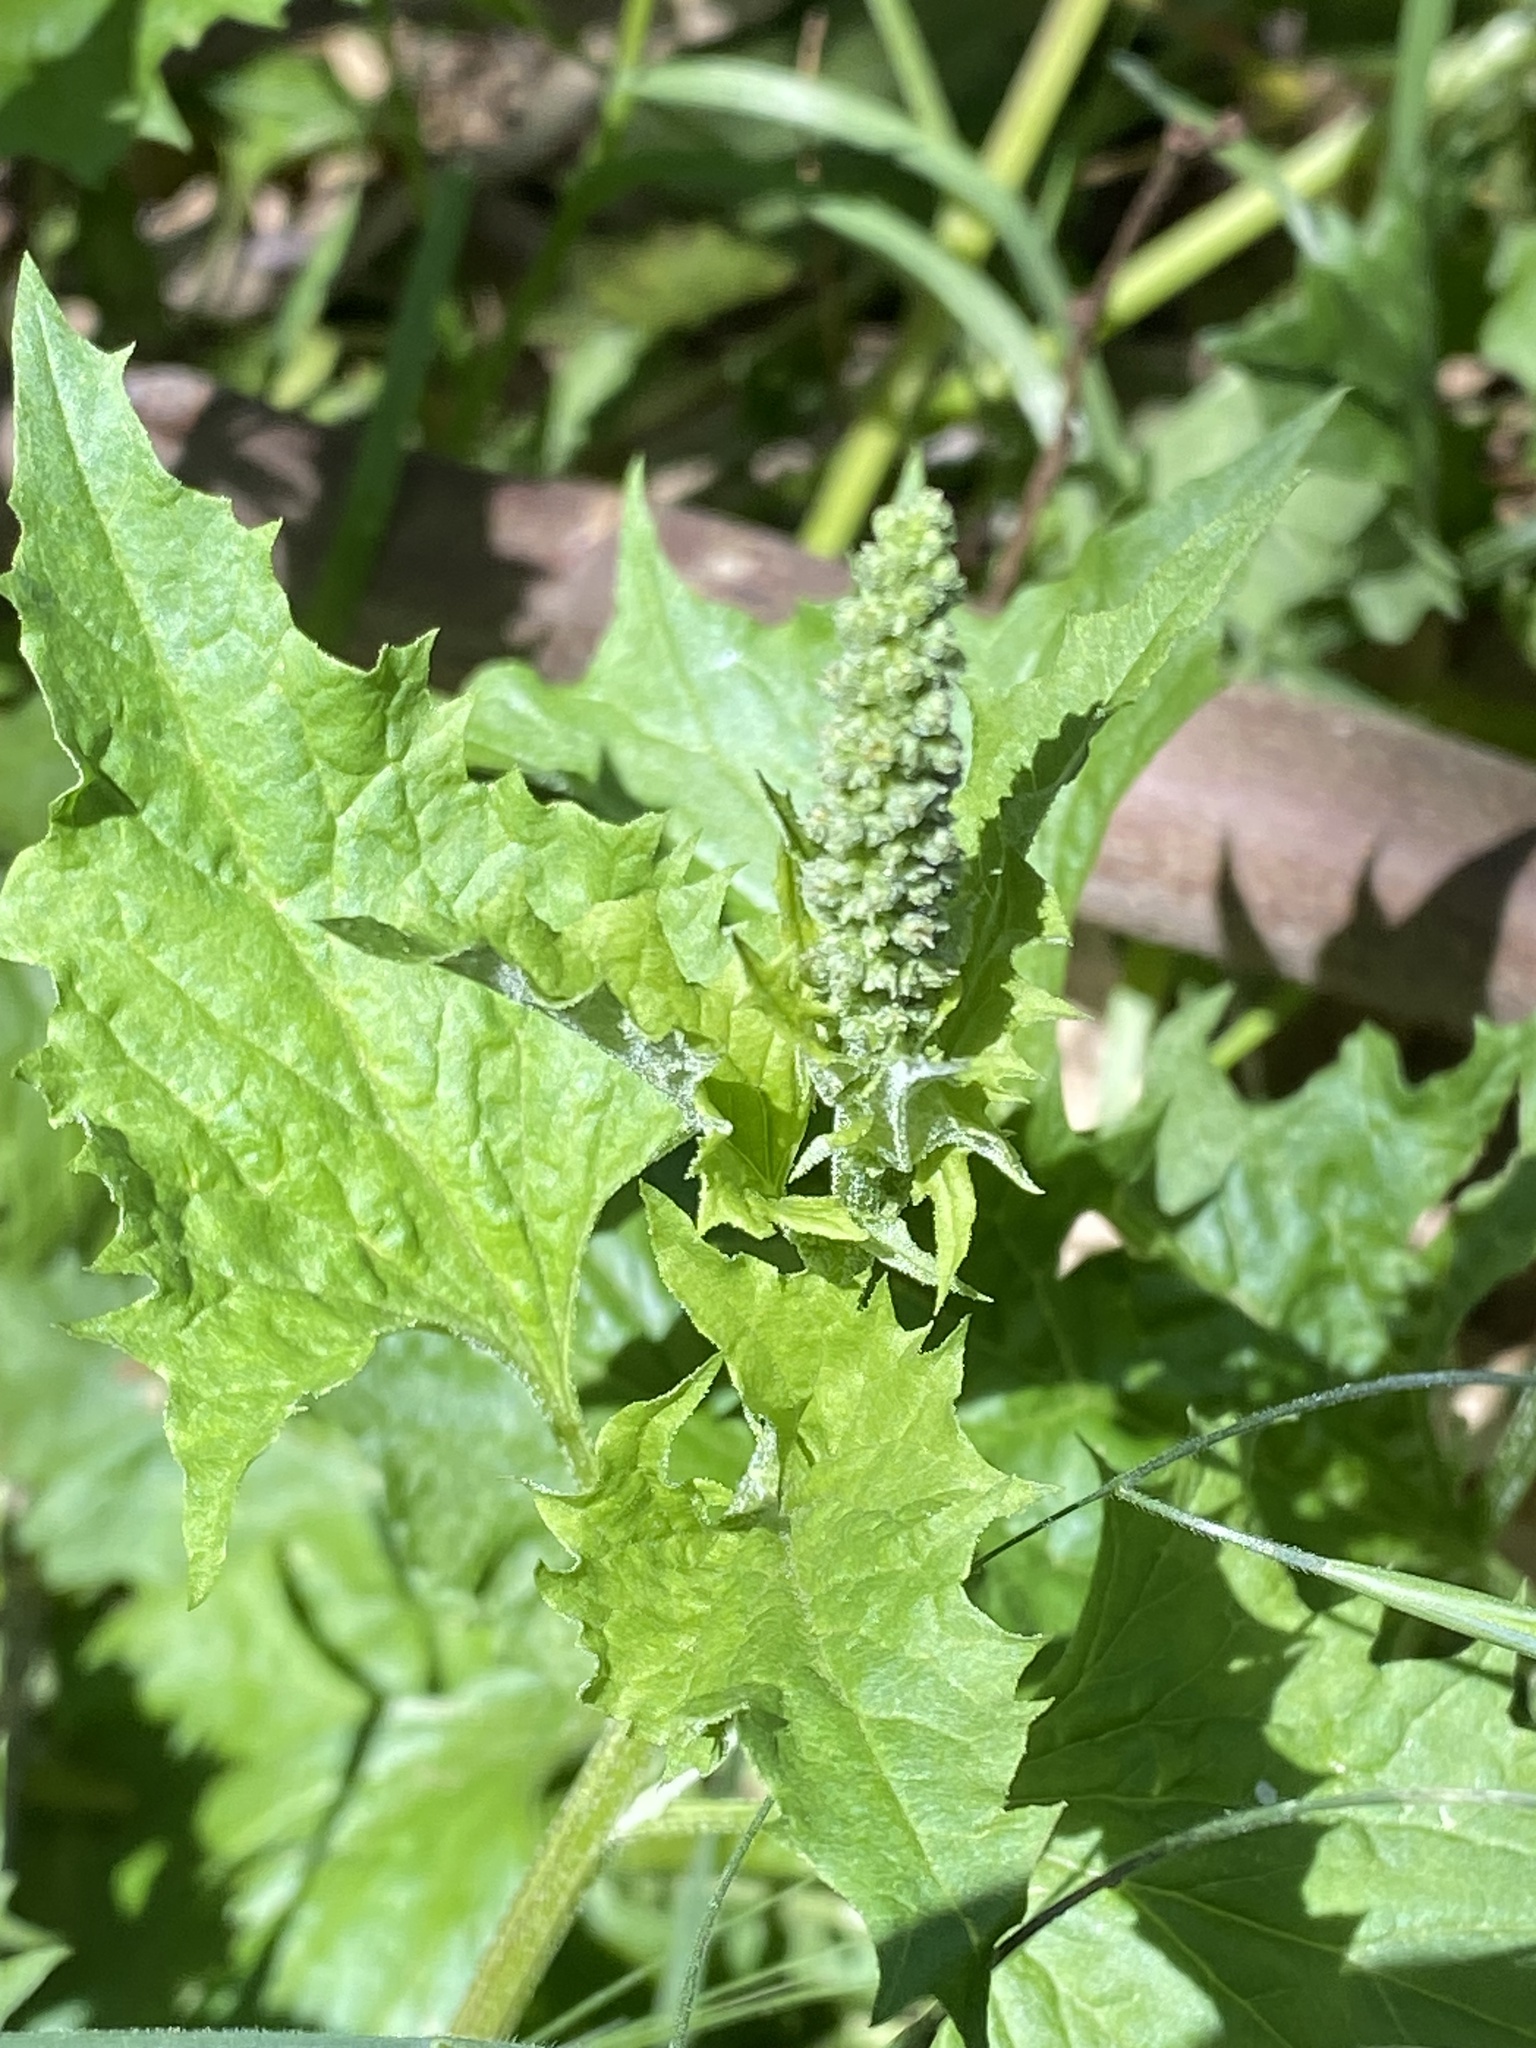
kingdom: Plantae
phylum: Tracheophyta
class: Magnoliopsida
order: Caryophyllales
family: Amaranthaceae
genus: Blitum
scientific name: Blitum californicum
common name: California goosefoot
